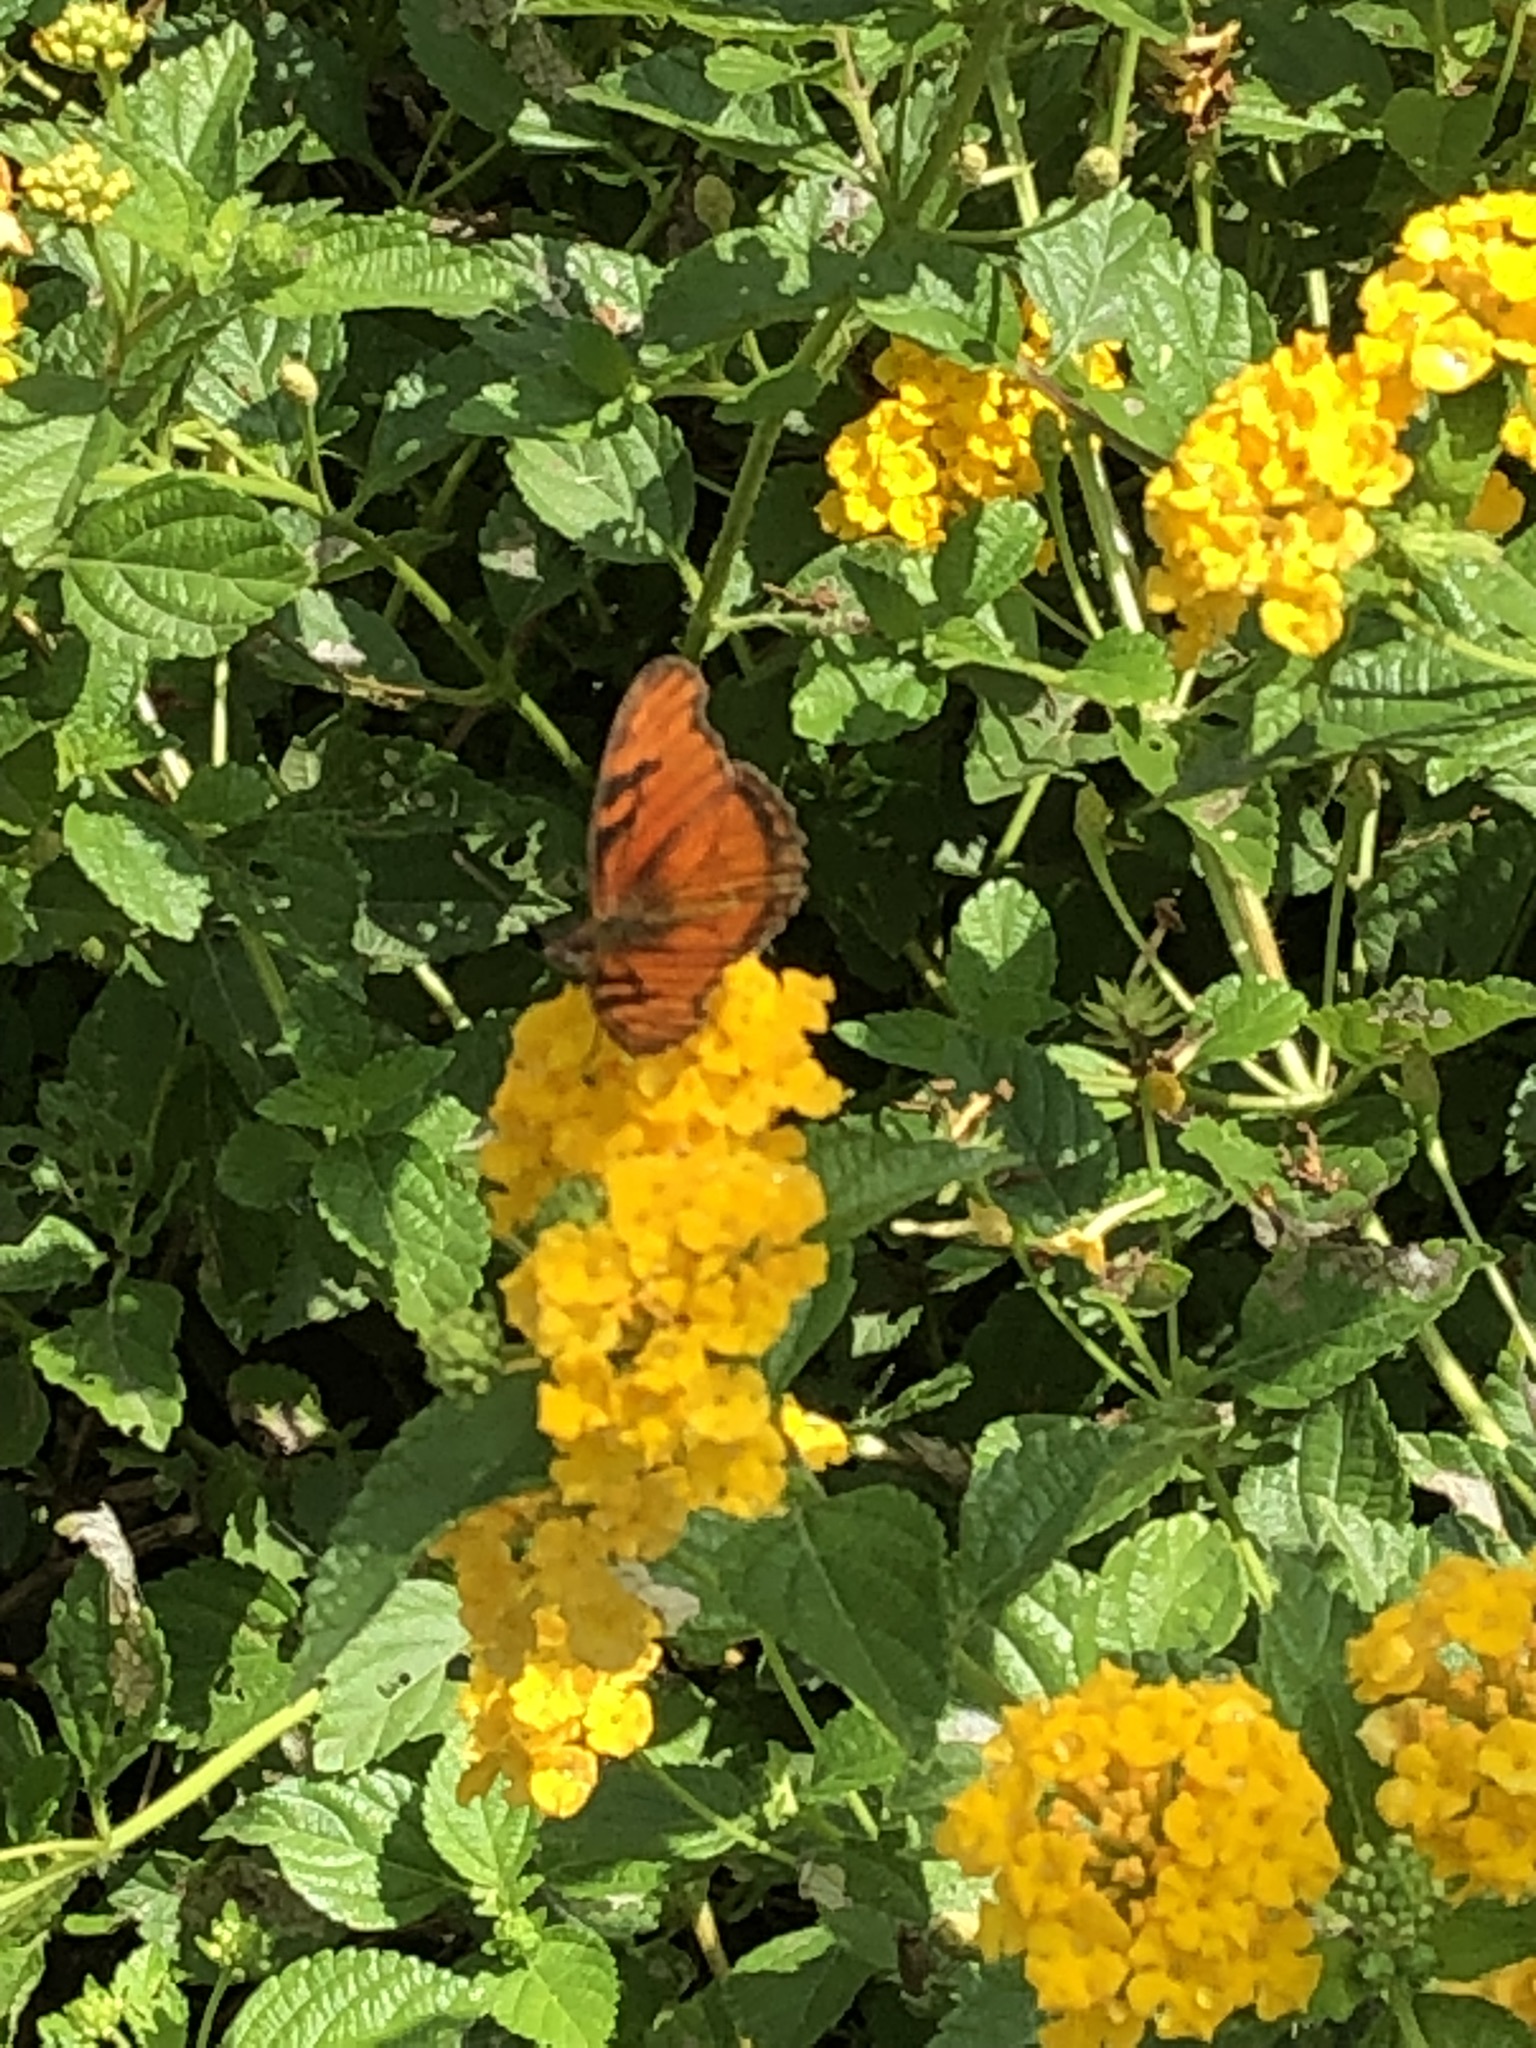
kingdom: Animalia
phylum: Arthropoda
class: Insecta
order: Lepidoptera
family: Nymphalidae
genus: Dione
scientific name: Dione juno
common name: Juno silverspot
